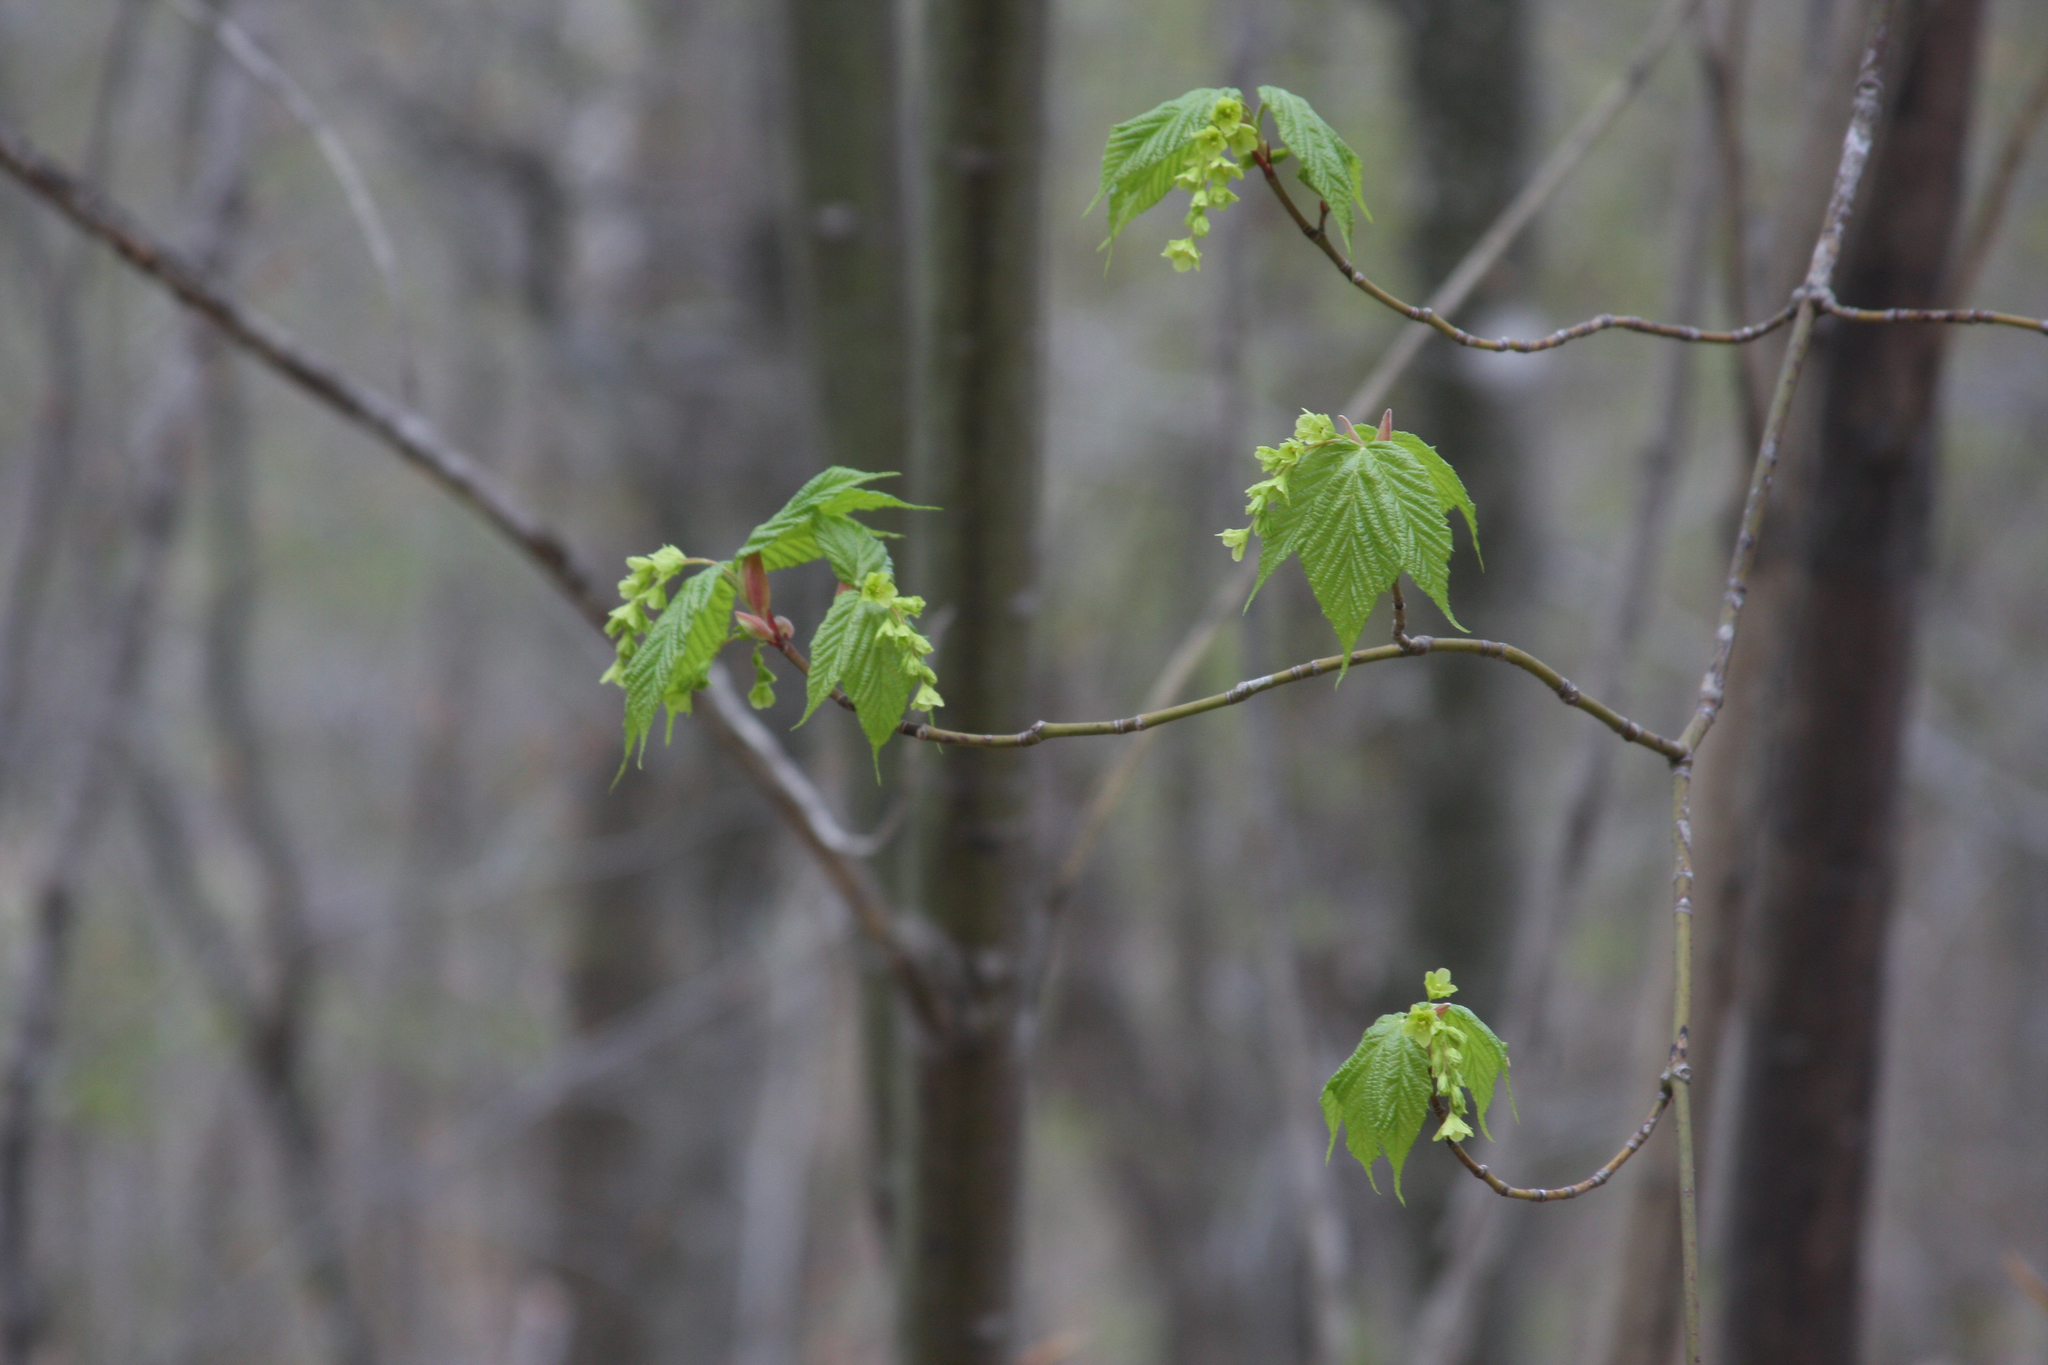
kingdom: Plantae
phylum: Tracheophyta
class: Magnoliopsida
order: Sapindales
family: Sapindaceae
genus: Acer
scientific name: Acer pensylvanicum
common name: Moosewood
